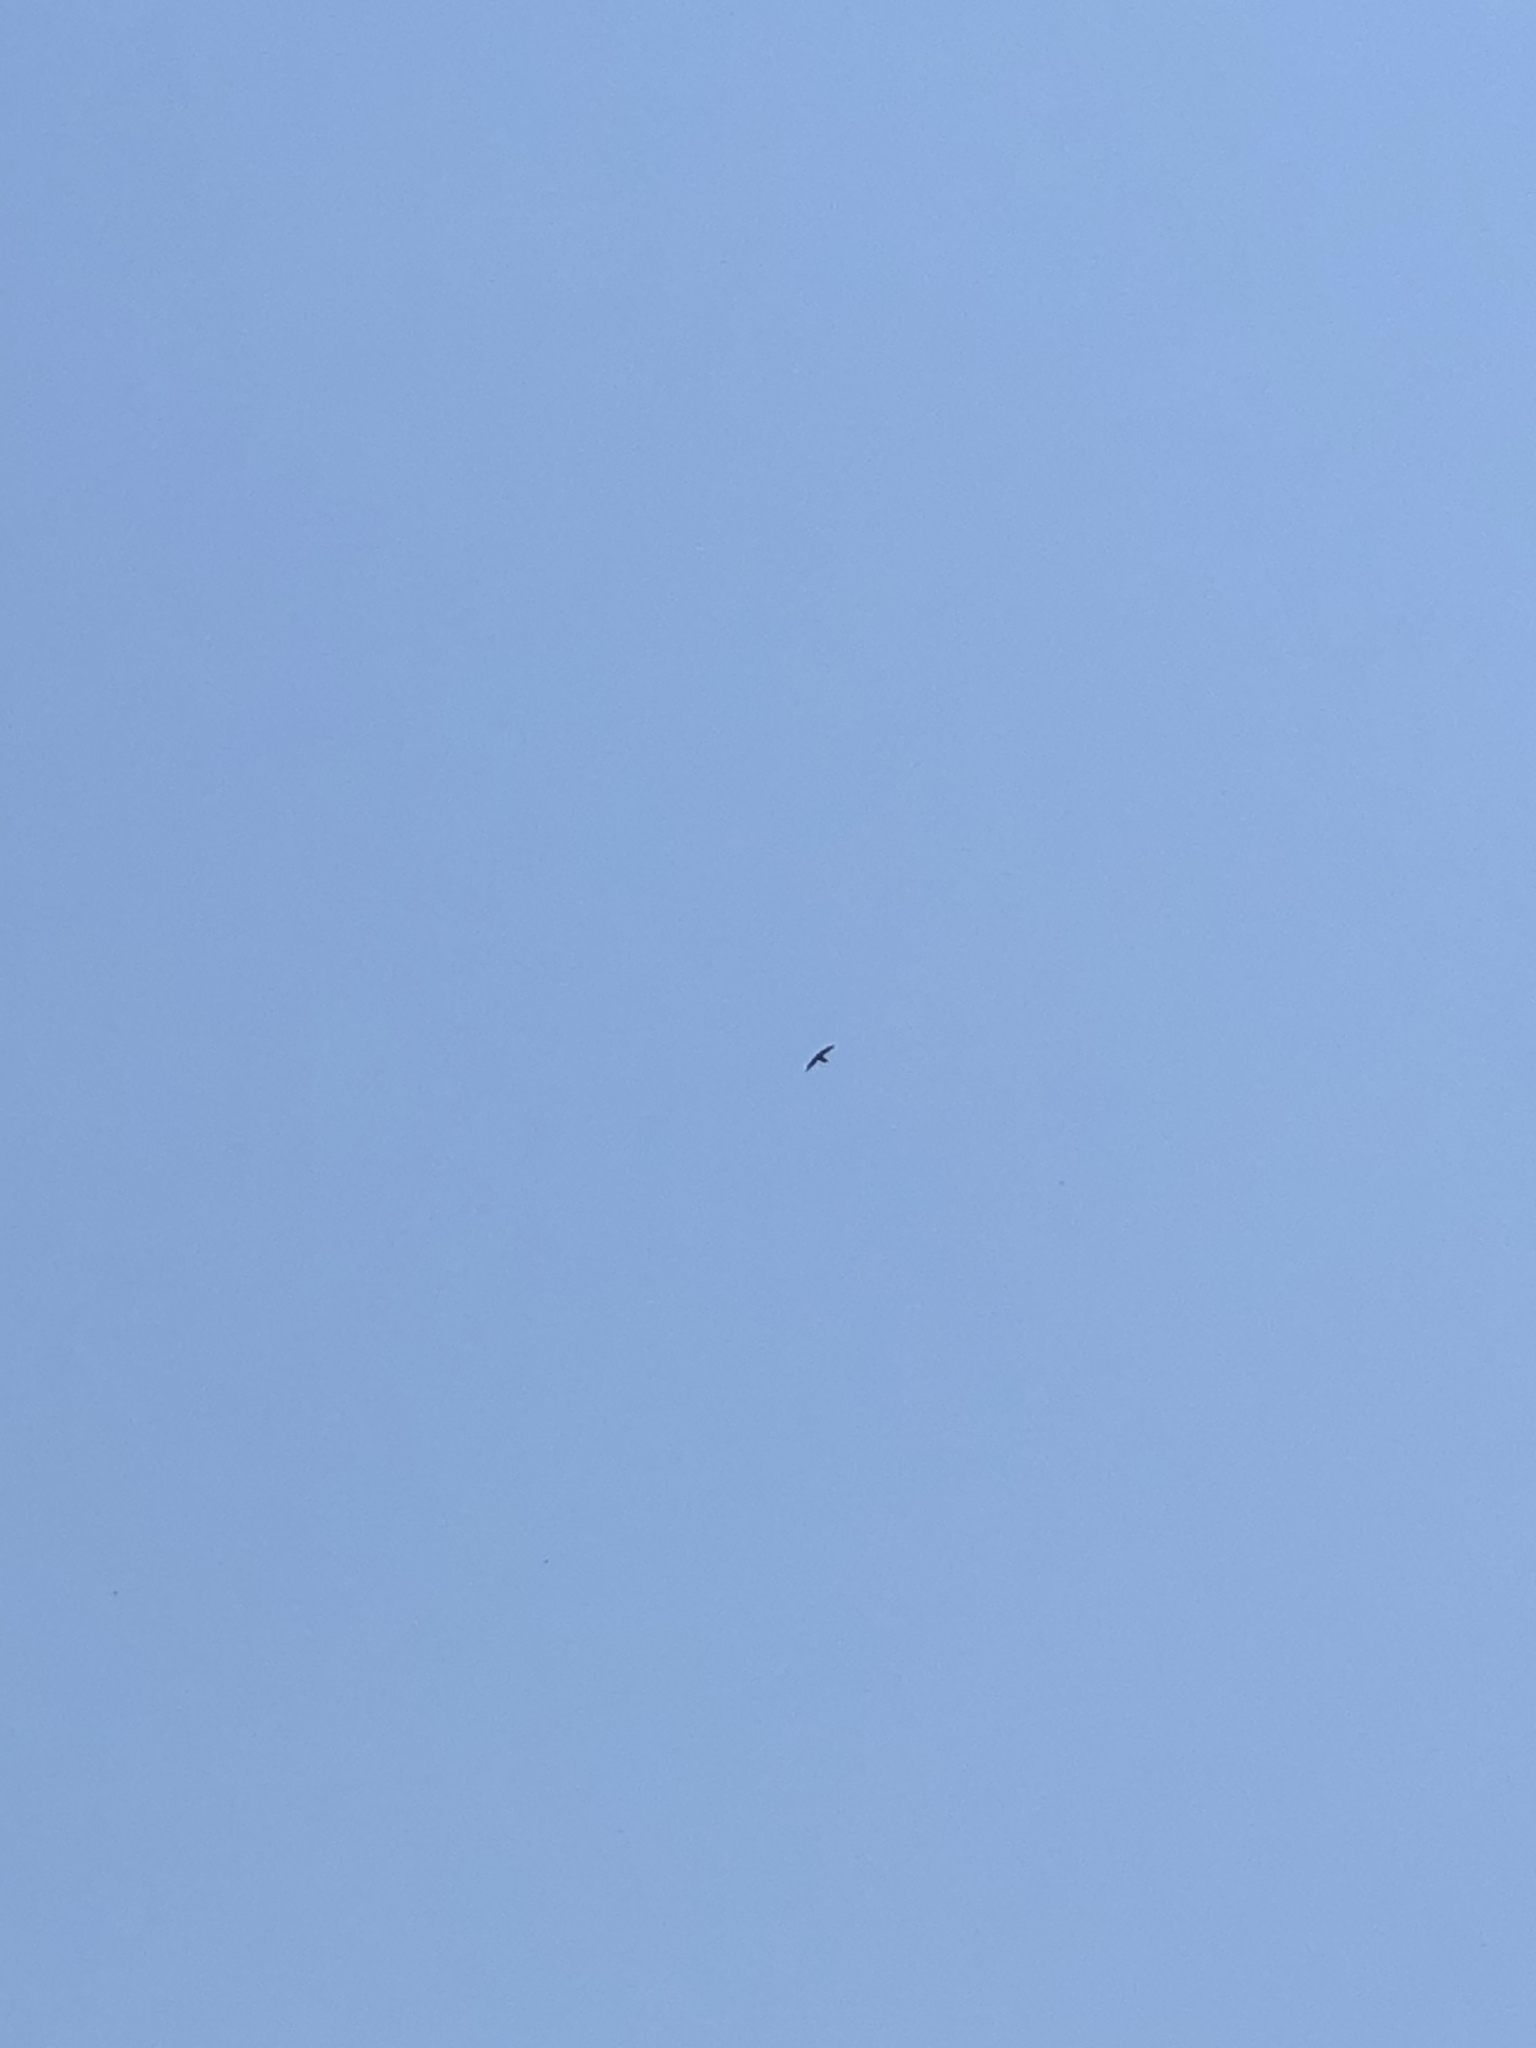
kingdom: Animalia
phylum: Chordata
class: Aves
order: Apodiformes
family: Apodidae
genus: Chaetura
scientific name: Chaetura pelagica
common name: Chimney swift
